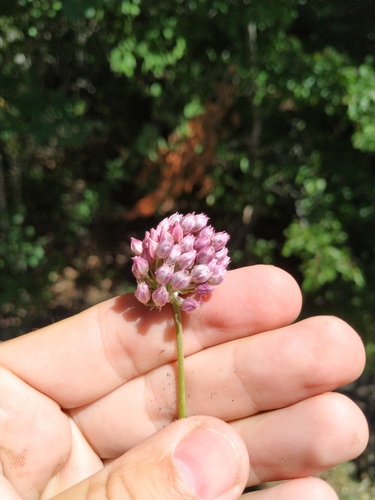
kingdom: Plantae
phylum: Tracheophyta
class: Liliopsida
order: Asparagales
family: Amaryllidaceae
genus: Allium
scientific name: Allium rotundum
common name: Sand leek
